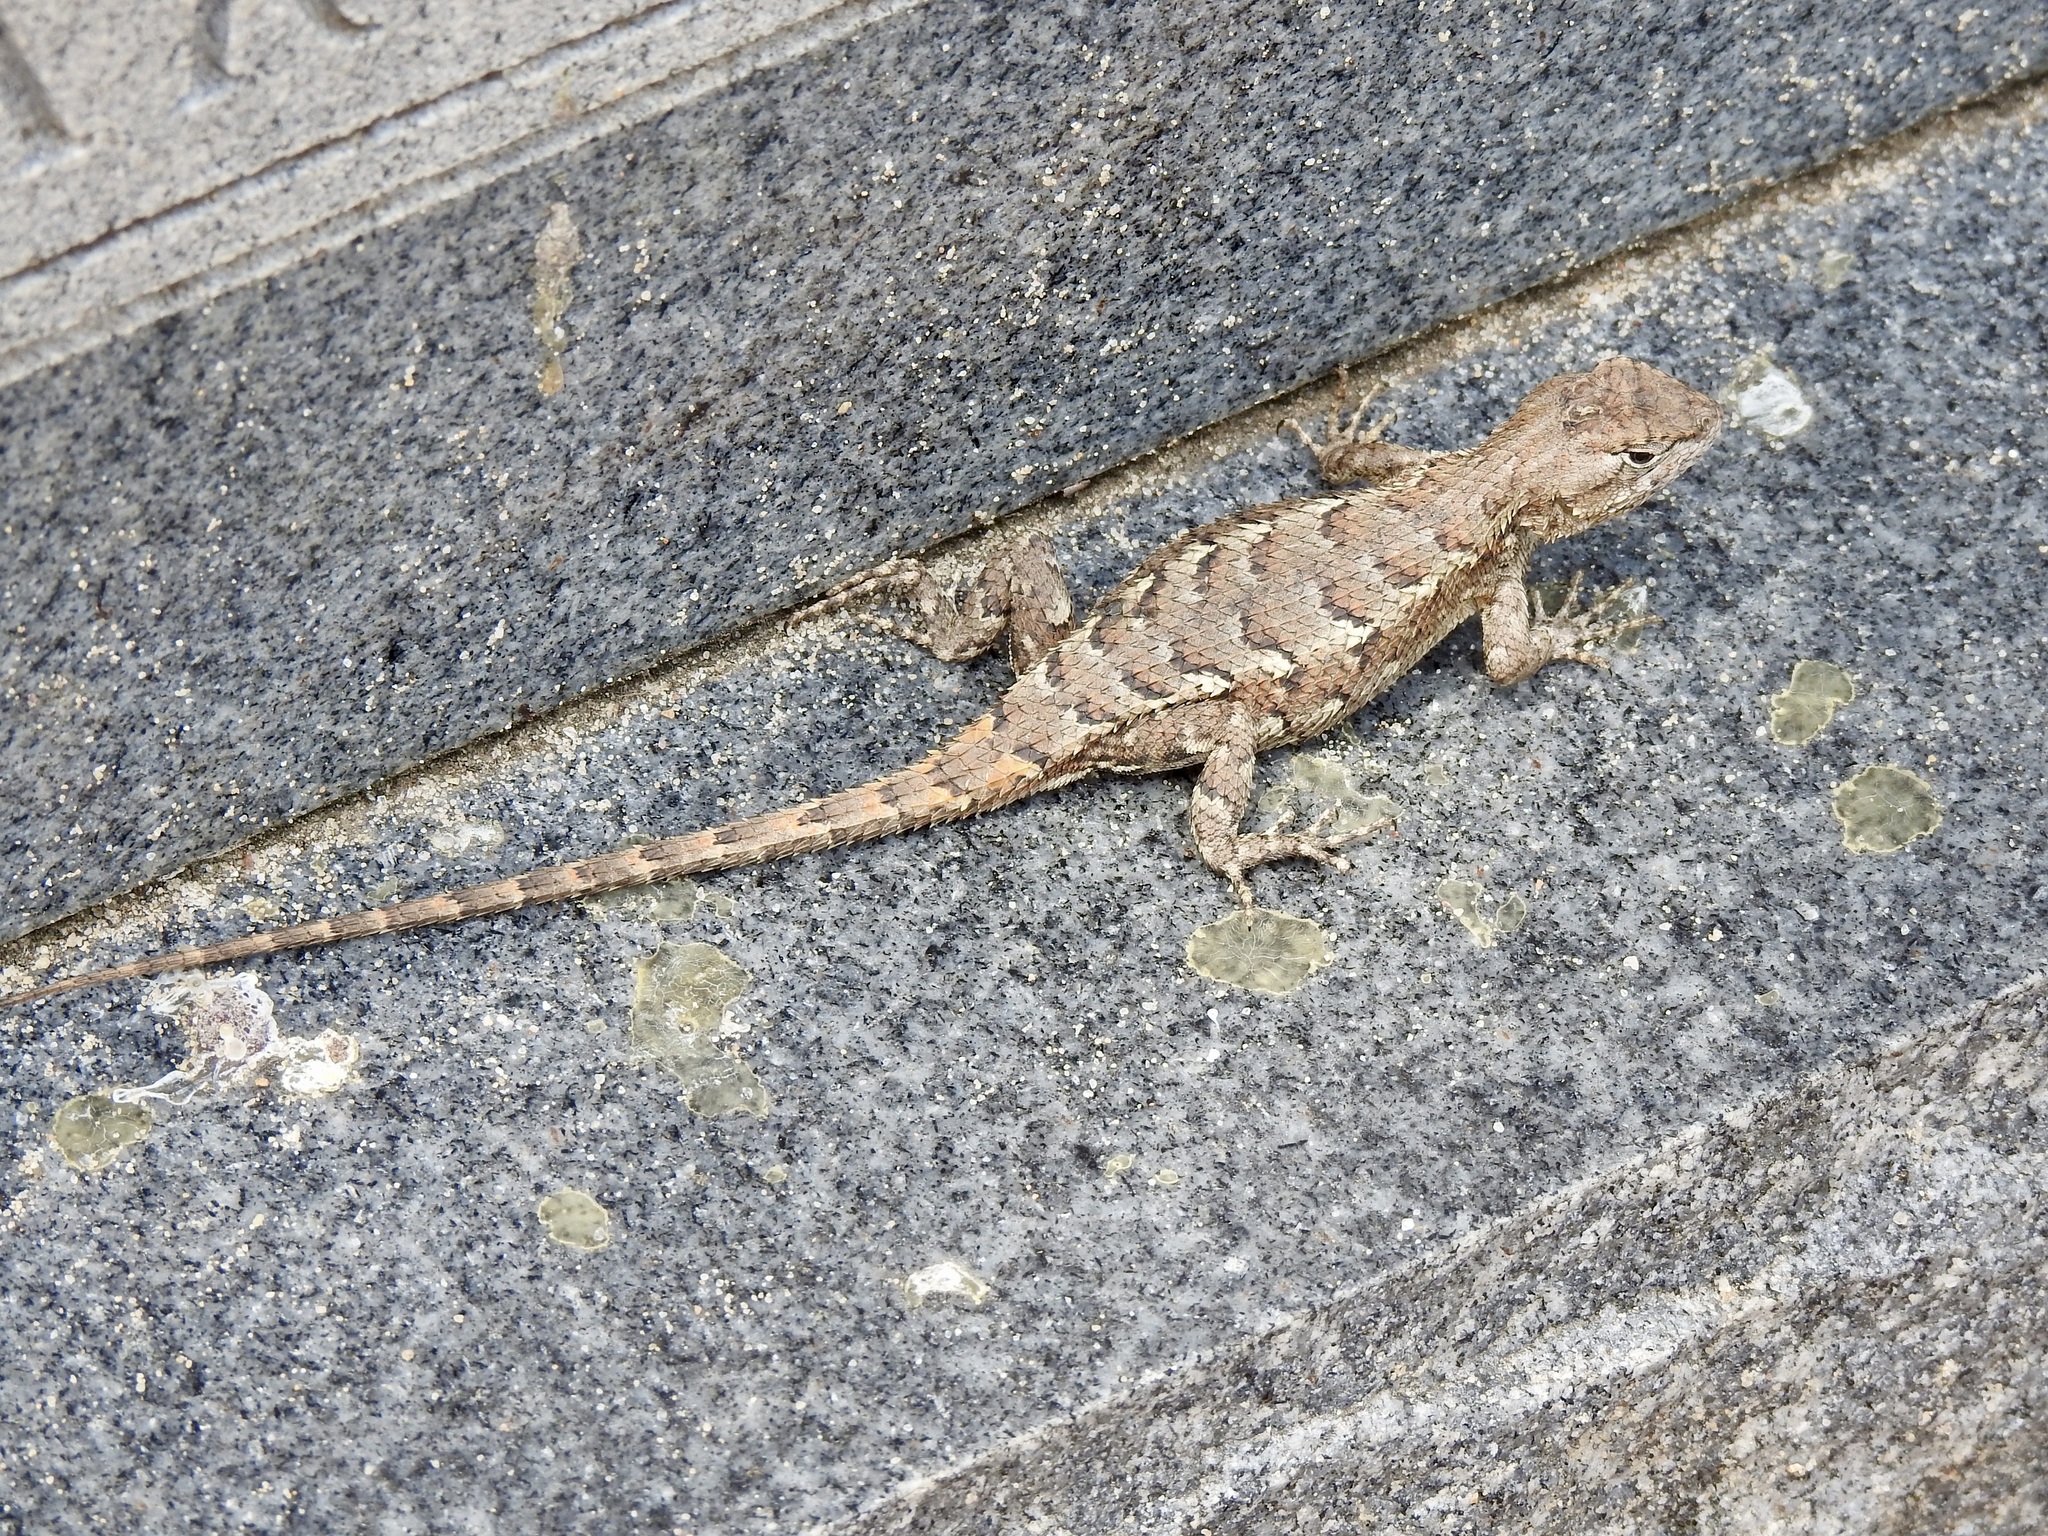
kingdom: Animalia
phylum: Chordata
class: Squamata
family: Phrynosomatidae
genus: Sceloporus
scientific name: Sceloporus consobrinus
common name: Southern prairie lizard
